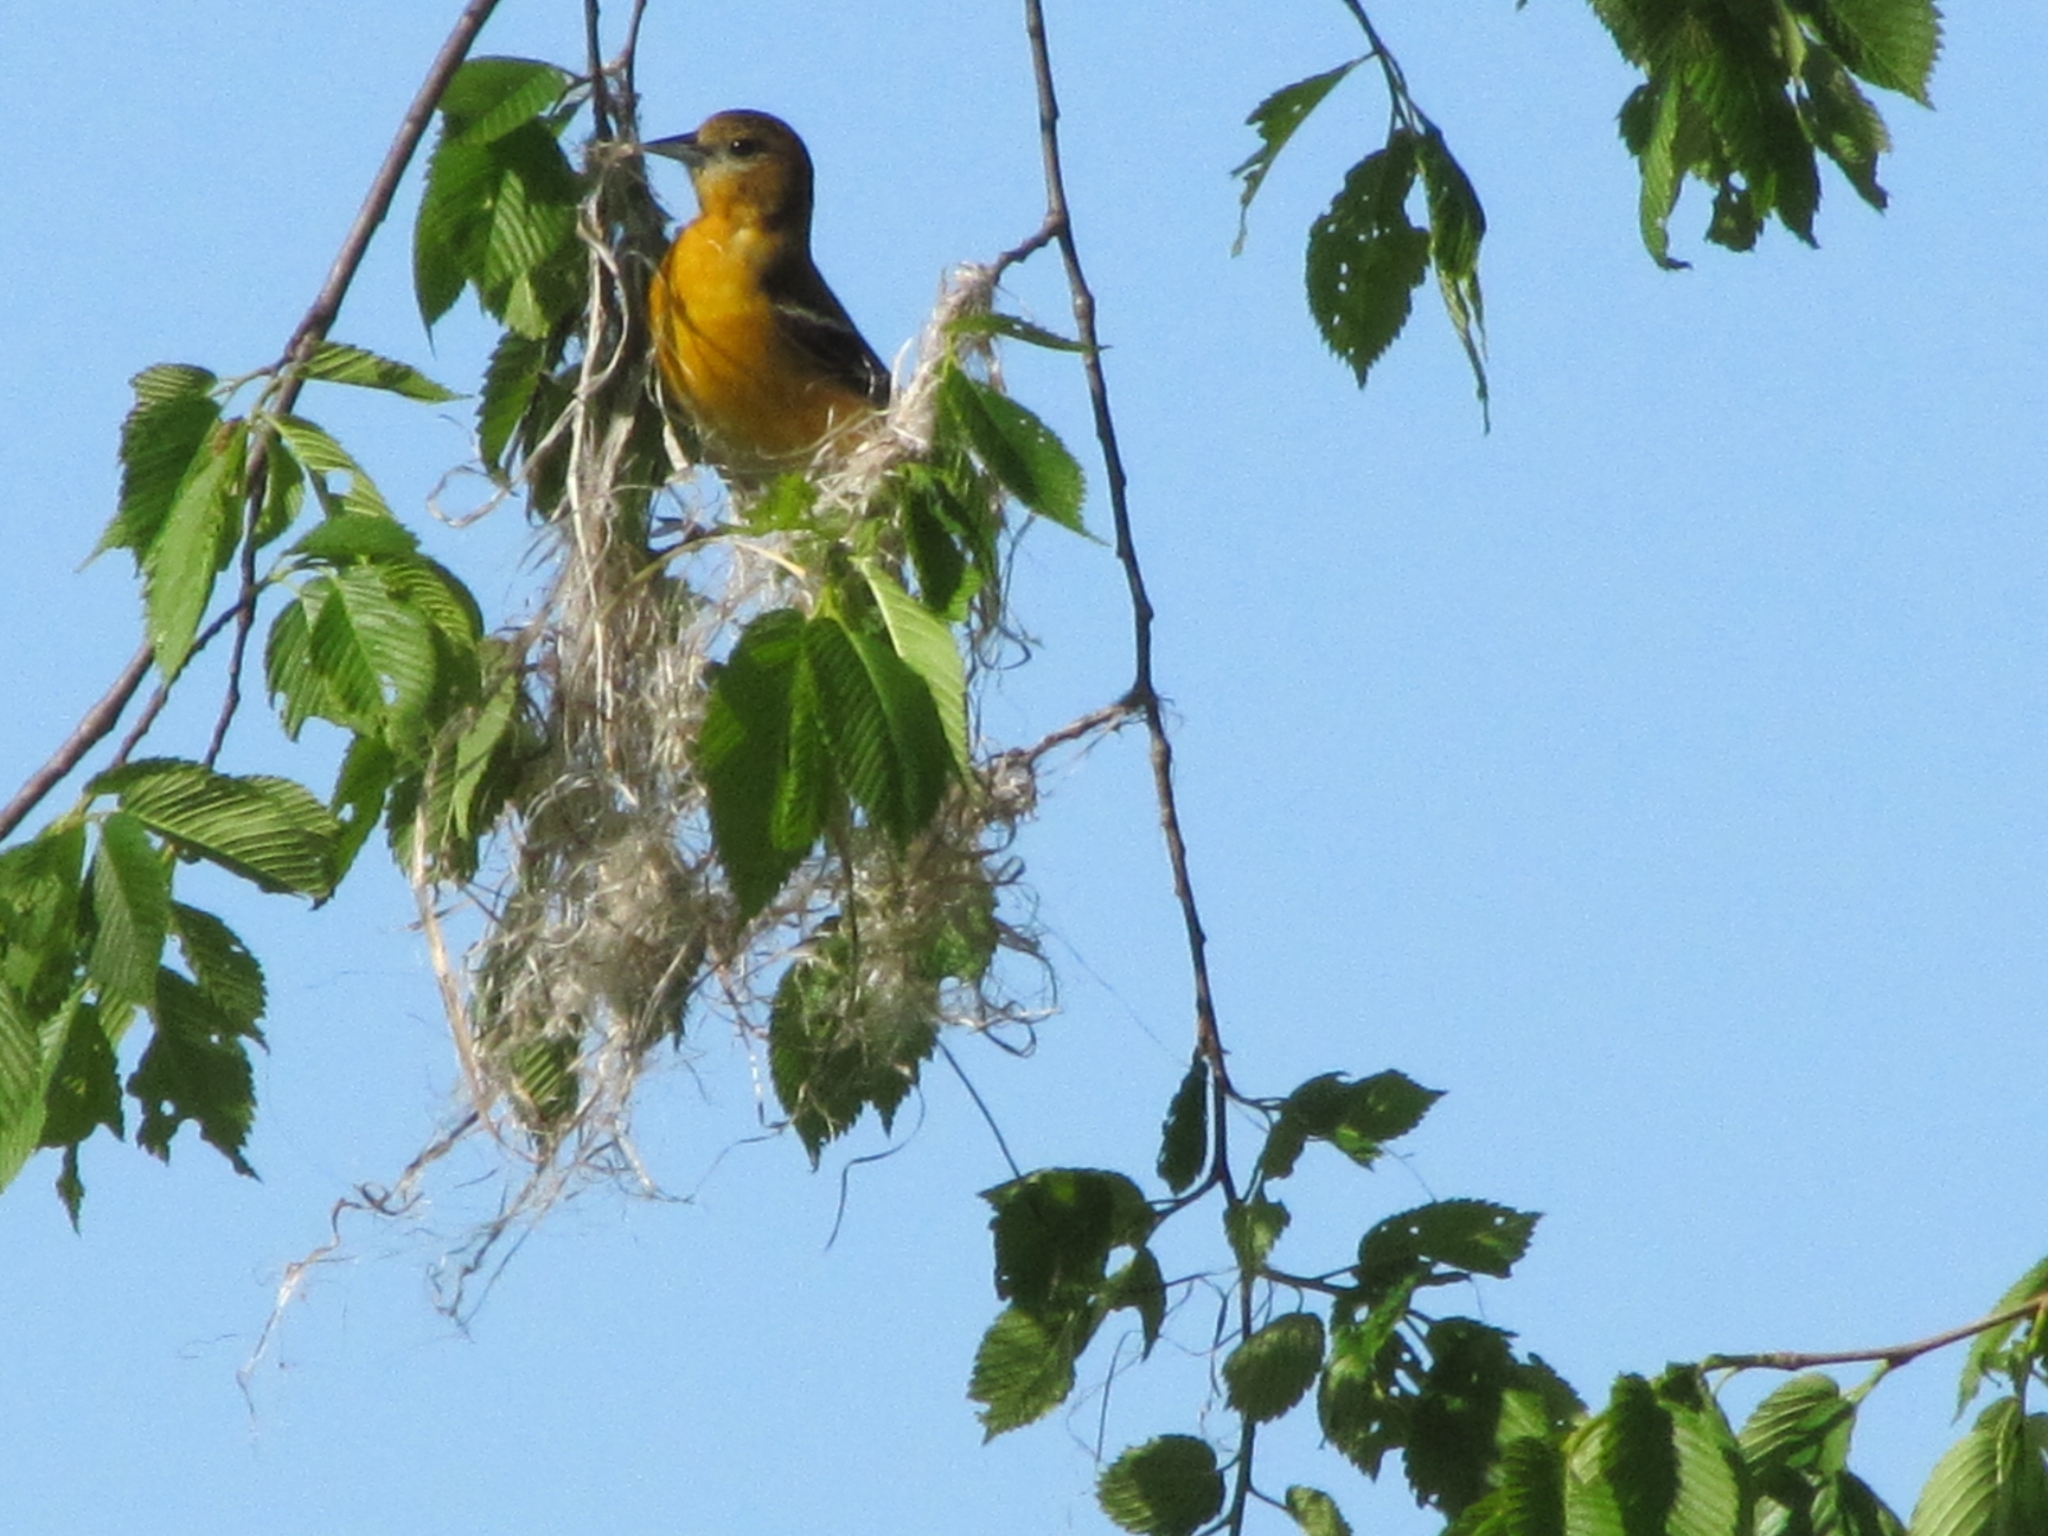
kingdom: Animalia
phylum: Chordata
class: Aves
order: Passeriformes
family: Icteridae
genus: Icterus
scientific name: Icterus galbula
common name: Baltimore oriole
